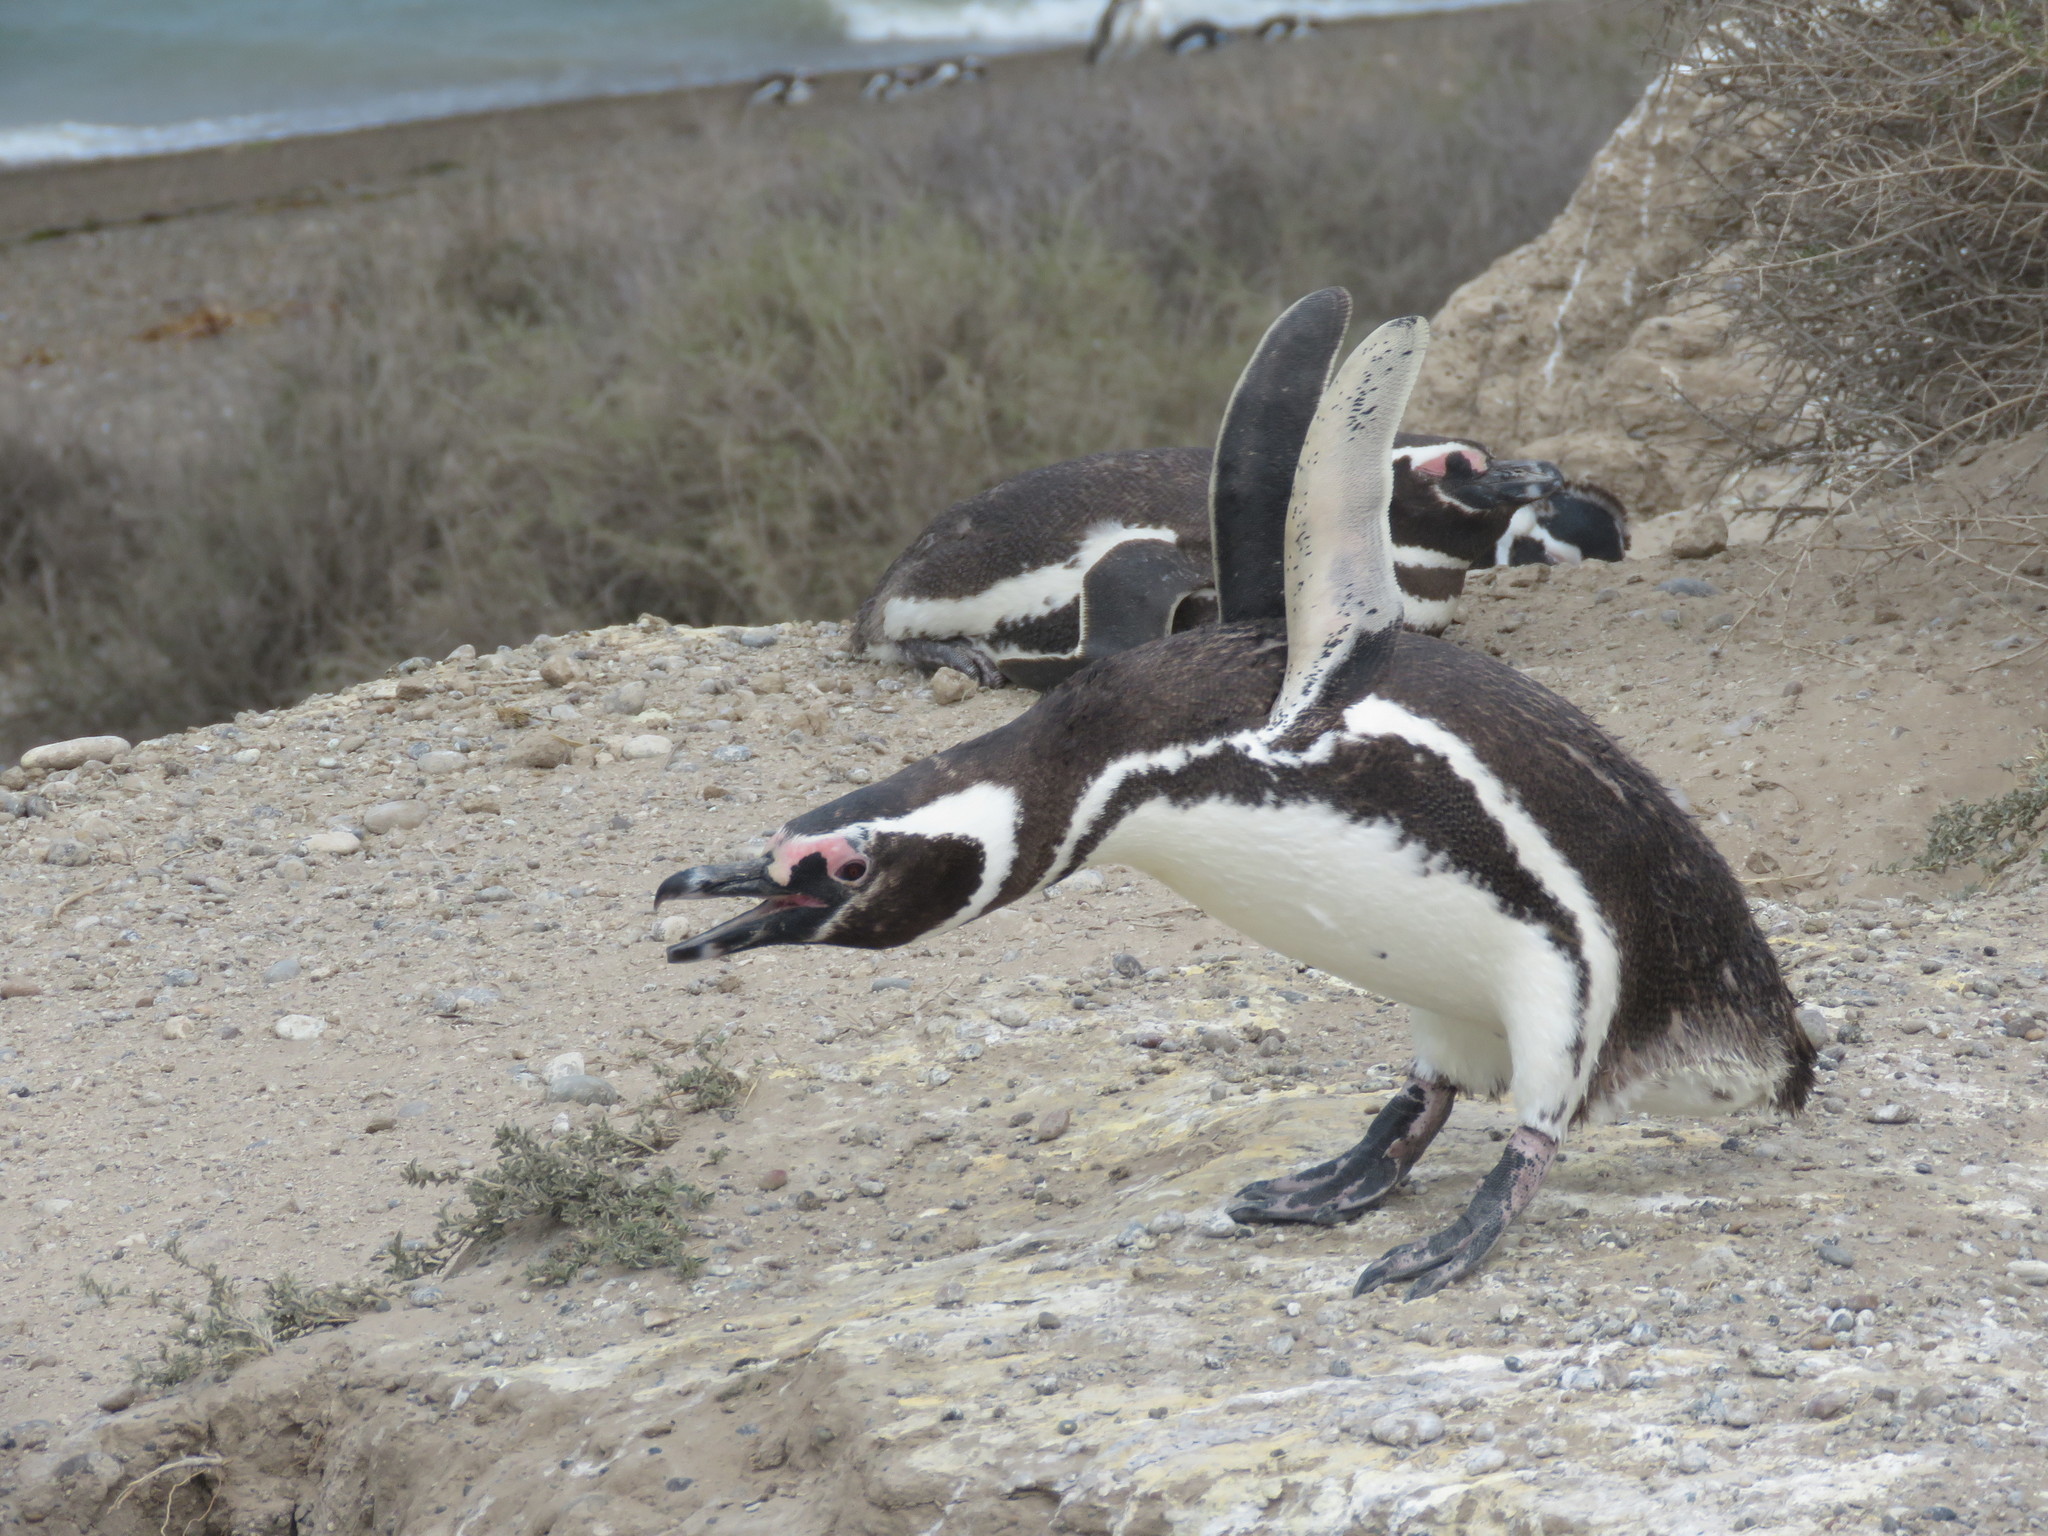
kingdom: Animalia
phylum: Chordata
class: Aves
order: Sphenisciformes
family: Spheniscidae
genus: Spheniscus
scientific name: Spheniscus magellanicus
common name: Magellanic penguin
